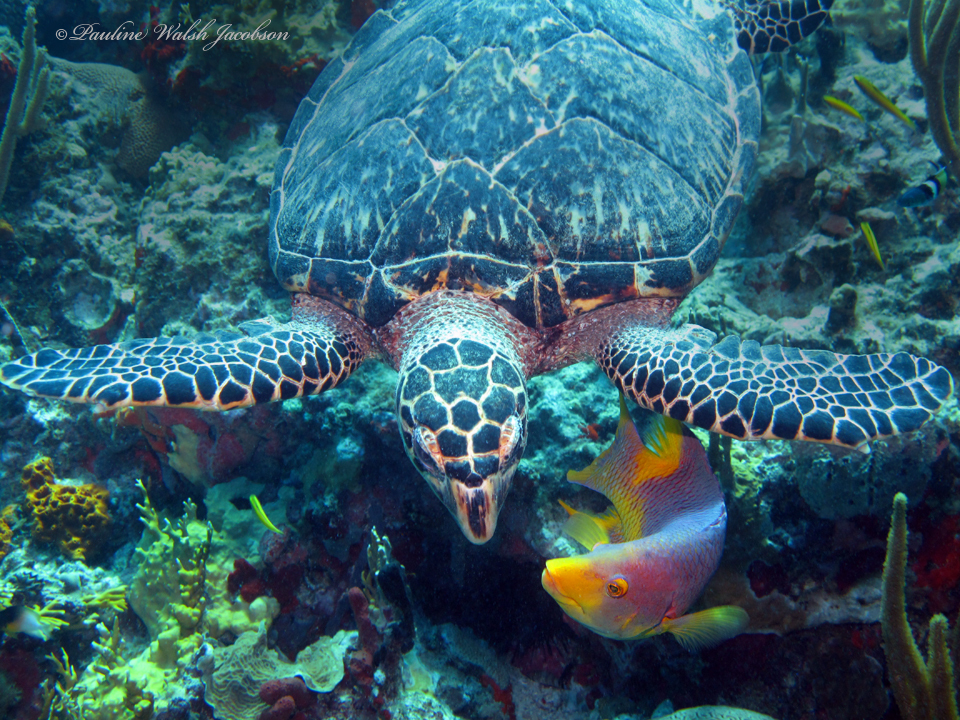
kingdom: Animalia
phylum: Chordata
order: Perciformes
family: Labridae
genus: Bodianus
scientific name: Bodianus rufus
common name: Spanish hogfish
